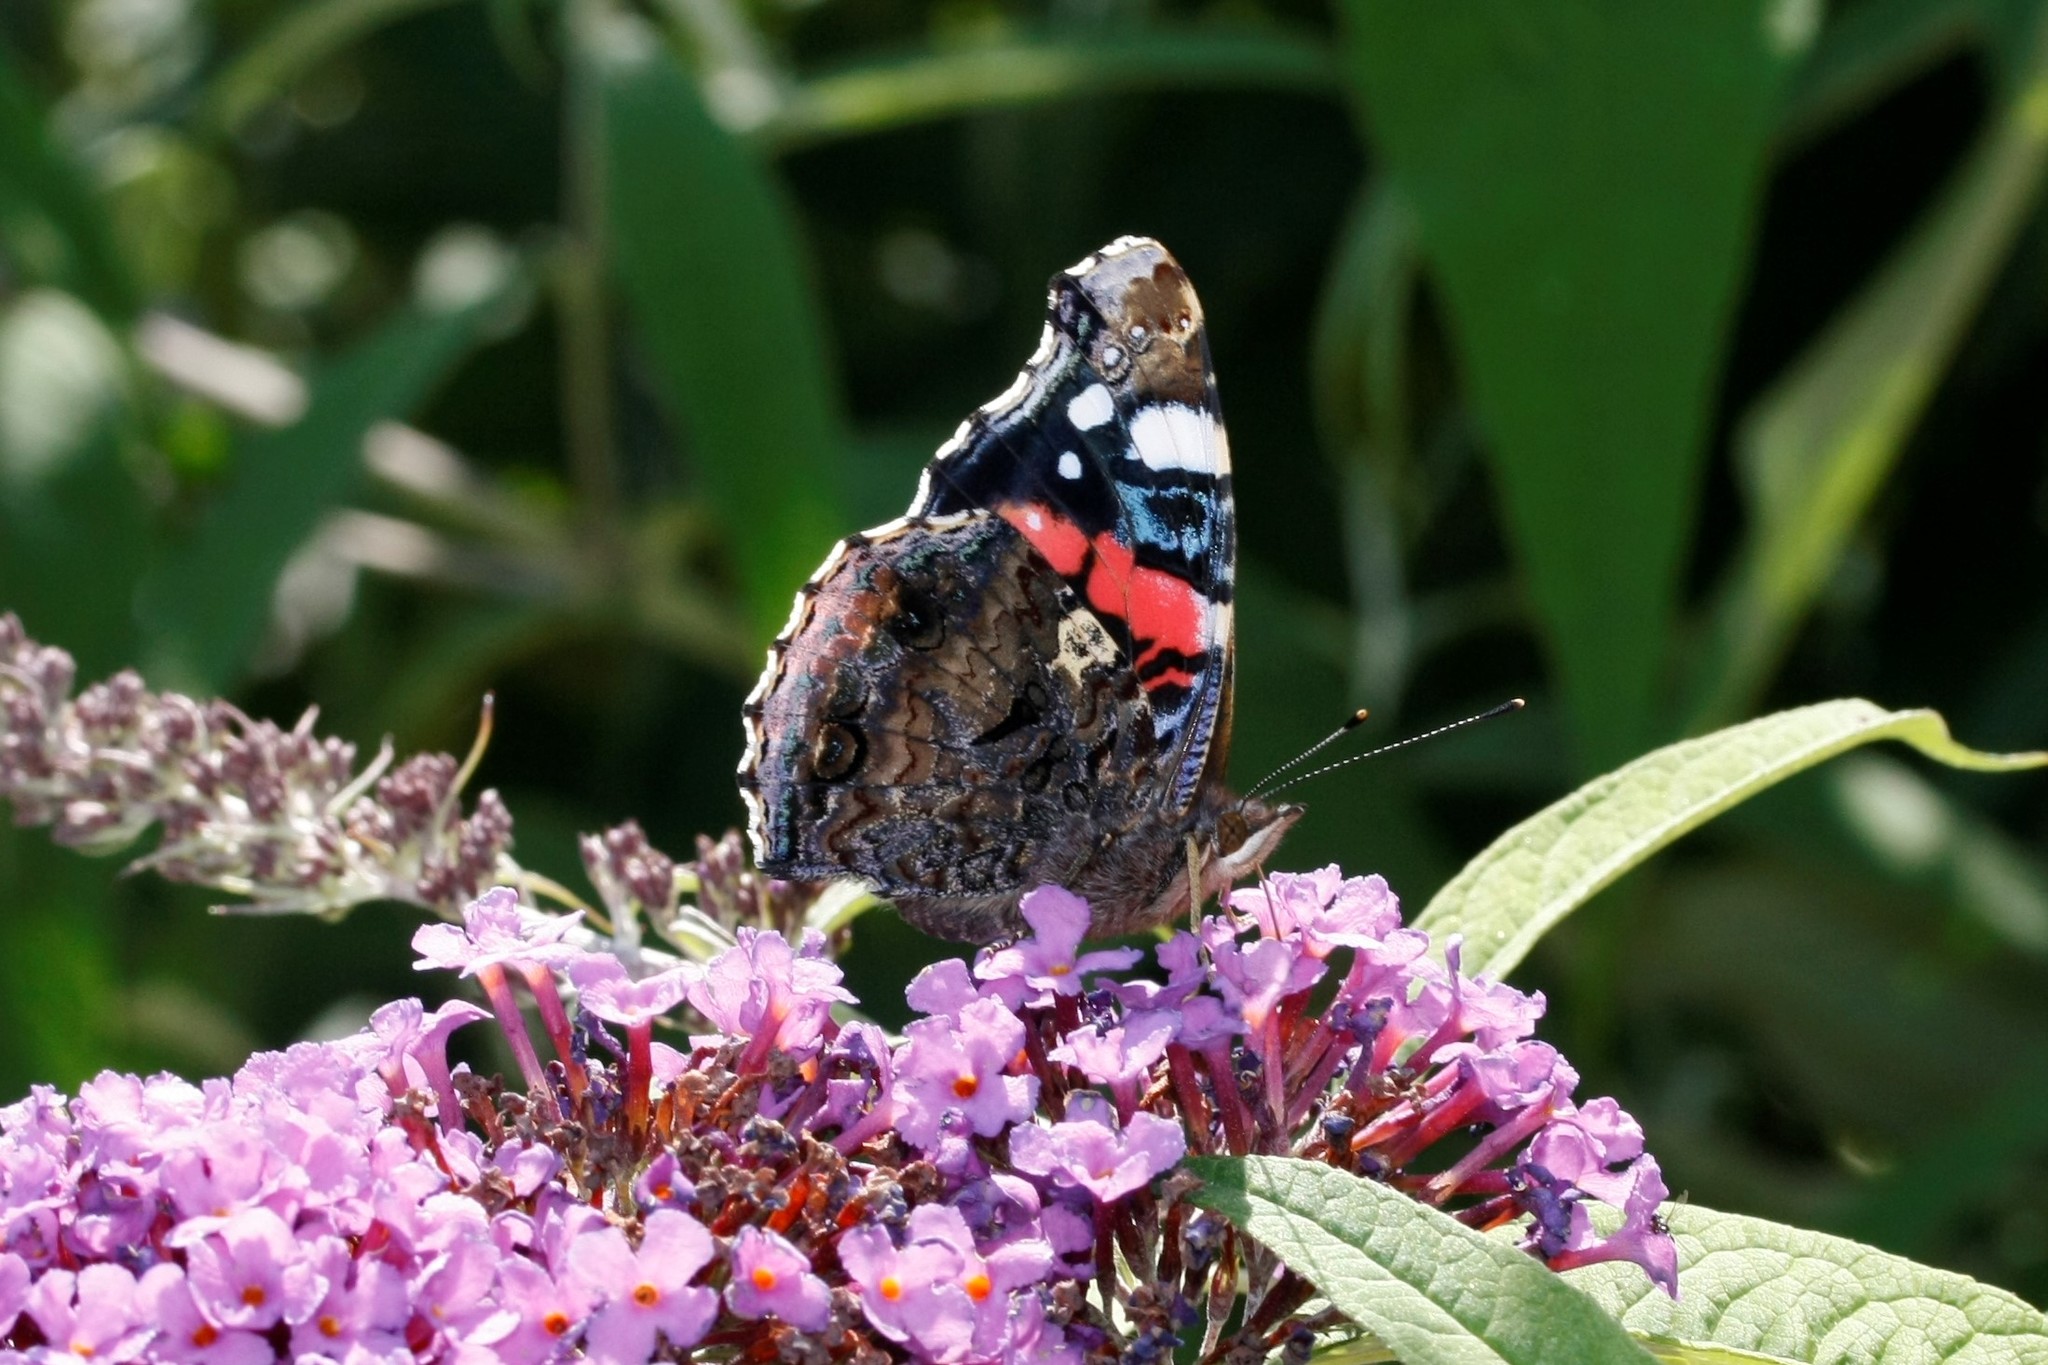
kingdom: Animalia
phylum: Arthropoda
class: Insecta
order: Lepidoptera
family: Nymphalidae
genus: Vanessa
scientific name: Vanessa atalanta
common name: Red admiral
